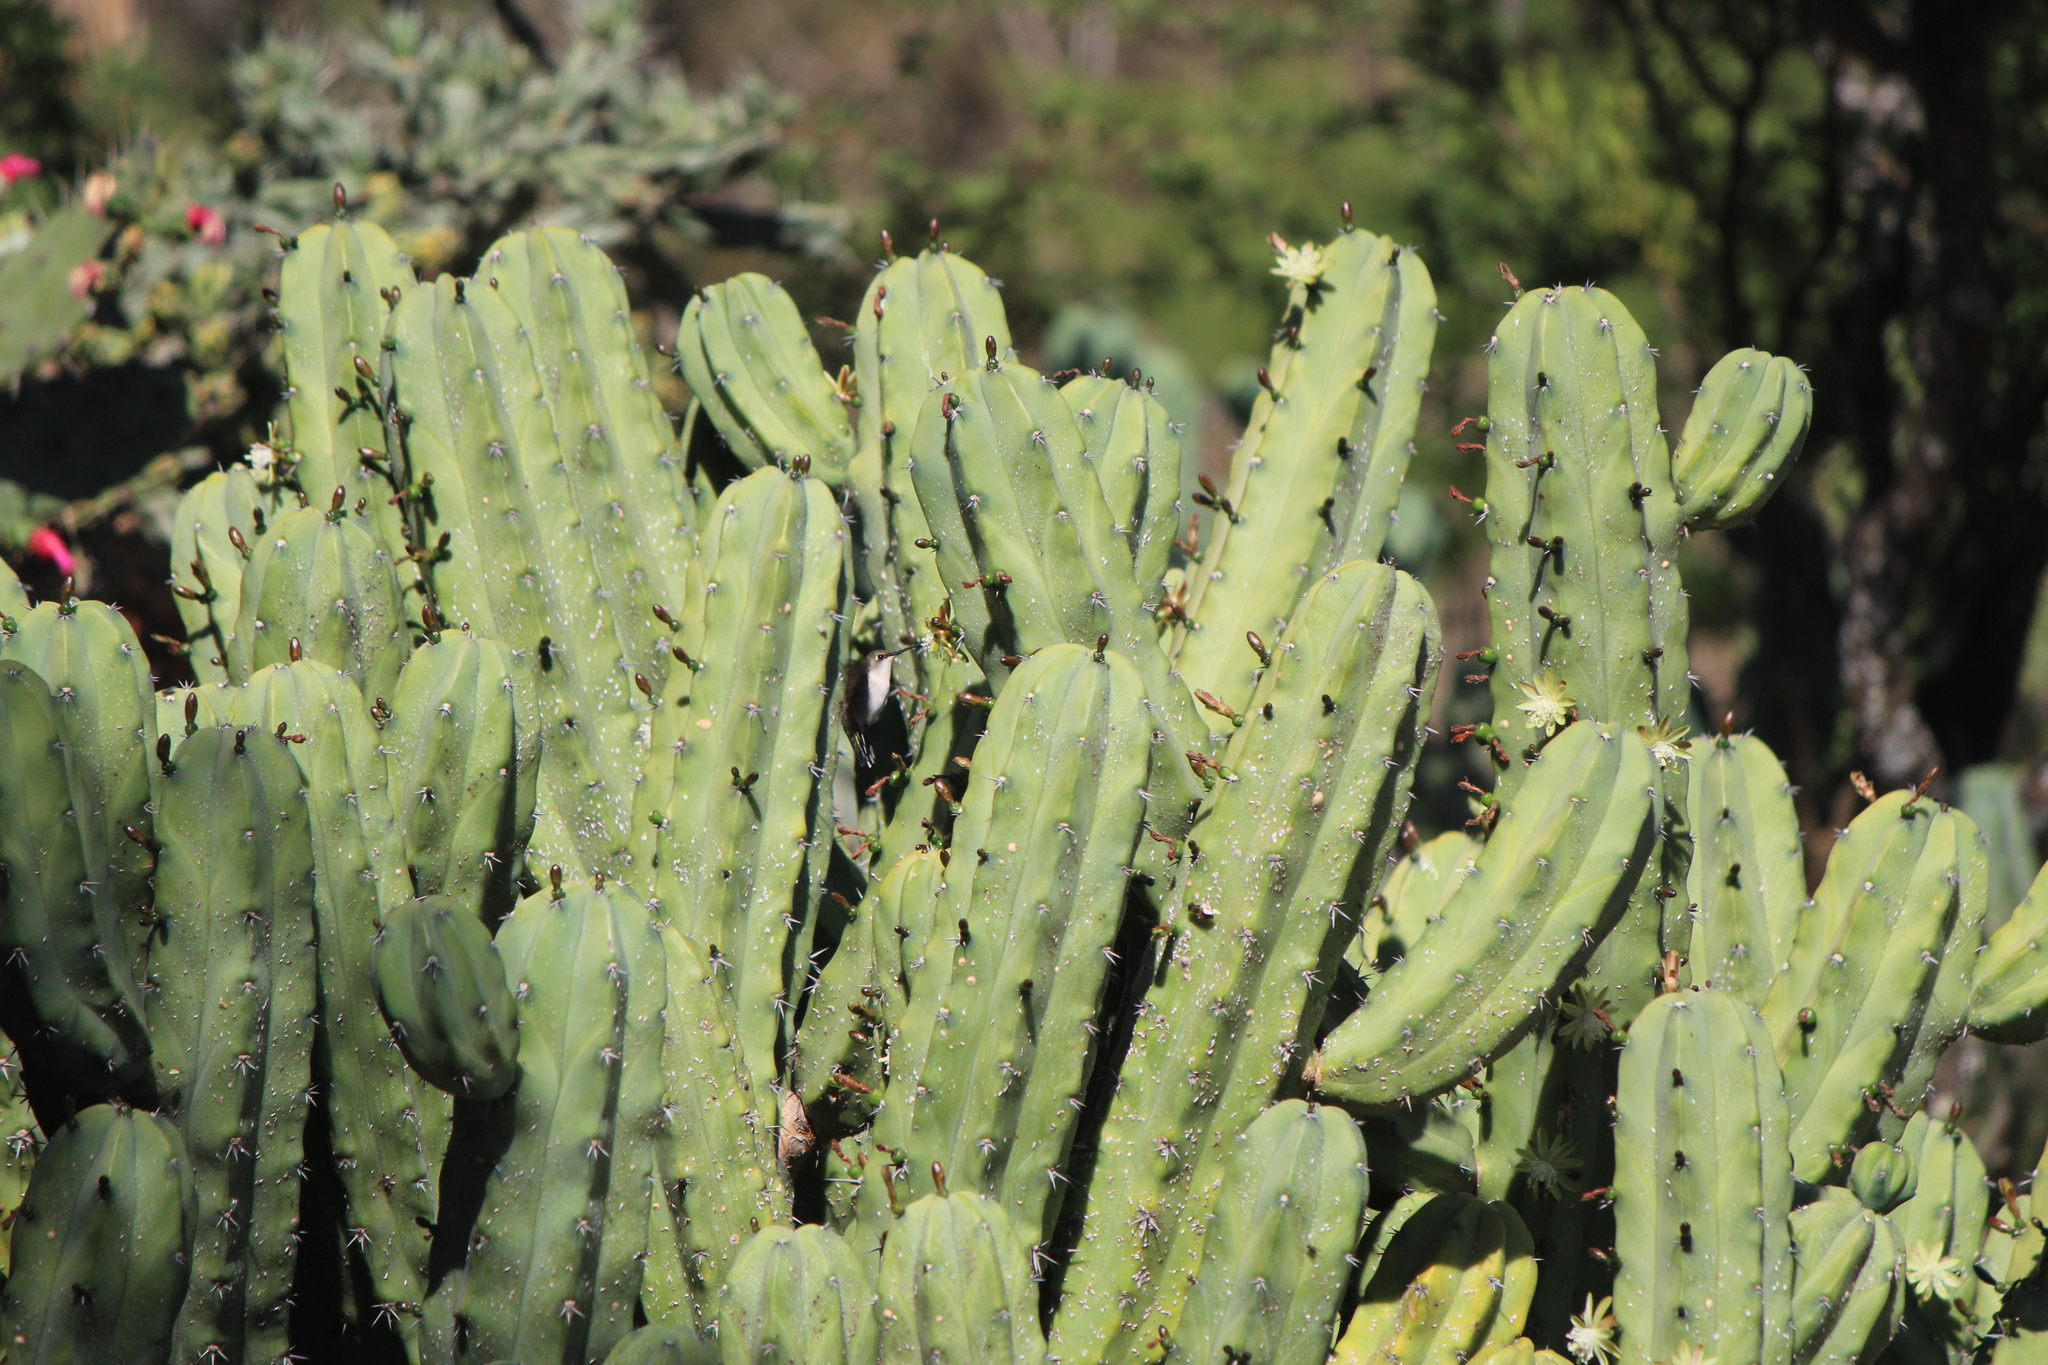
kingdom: Animalia
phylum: Chordata
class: Aves
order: Apodiformes
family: Trochilidae
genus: Archilochus
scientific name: Archilochus colubris
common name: Ruby-throated hummingbird
